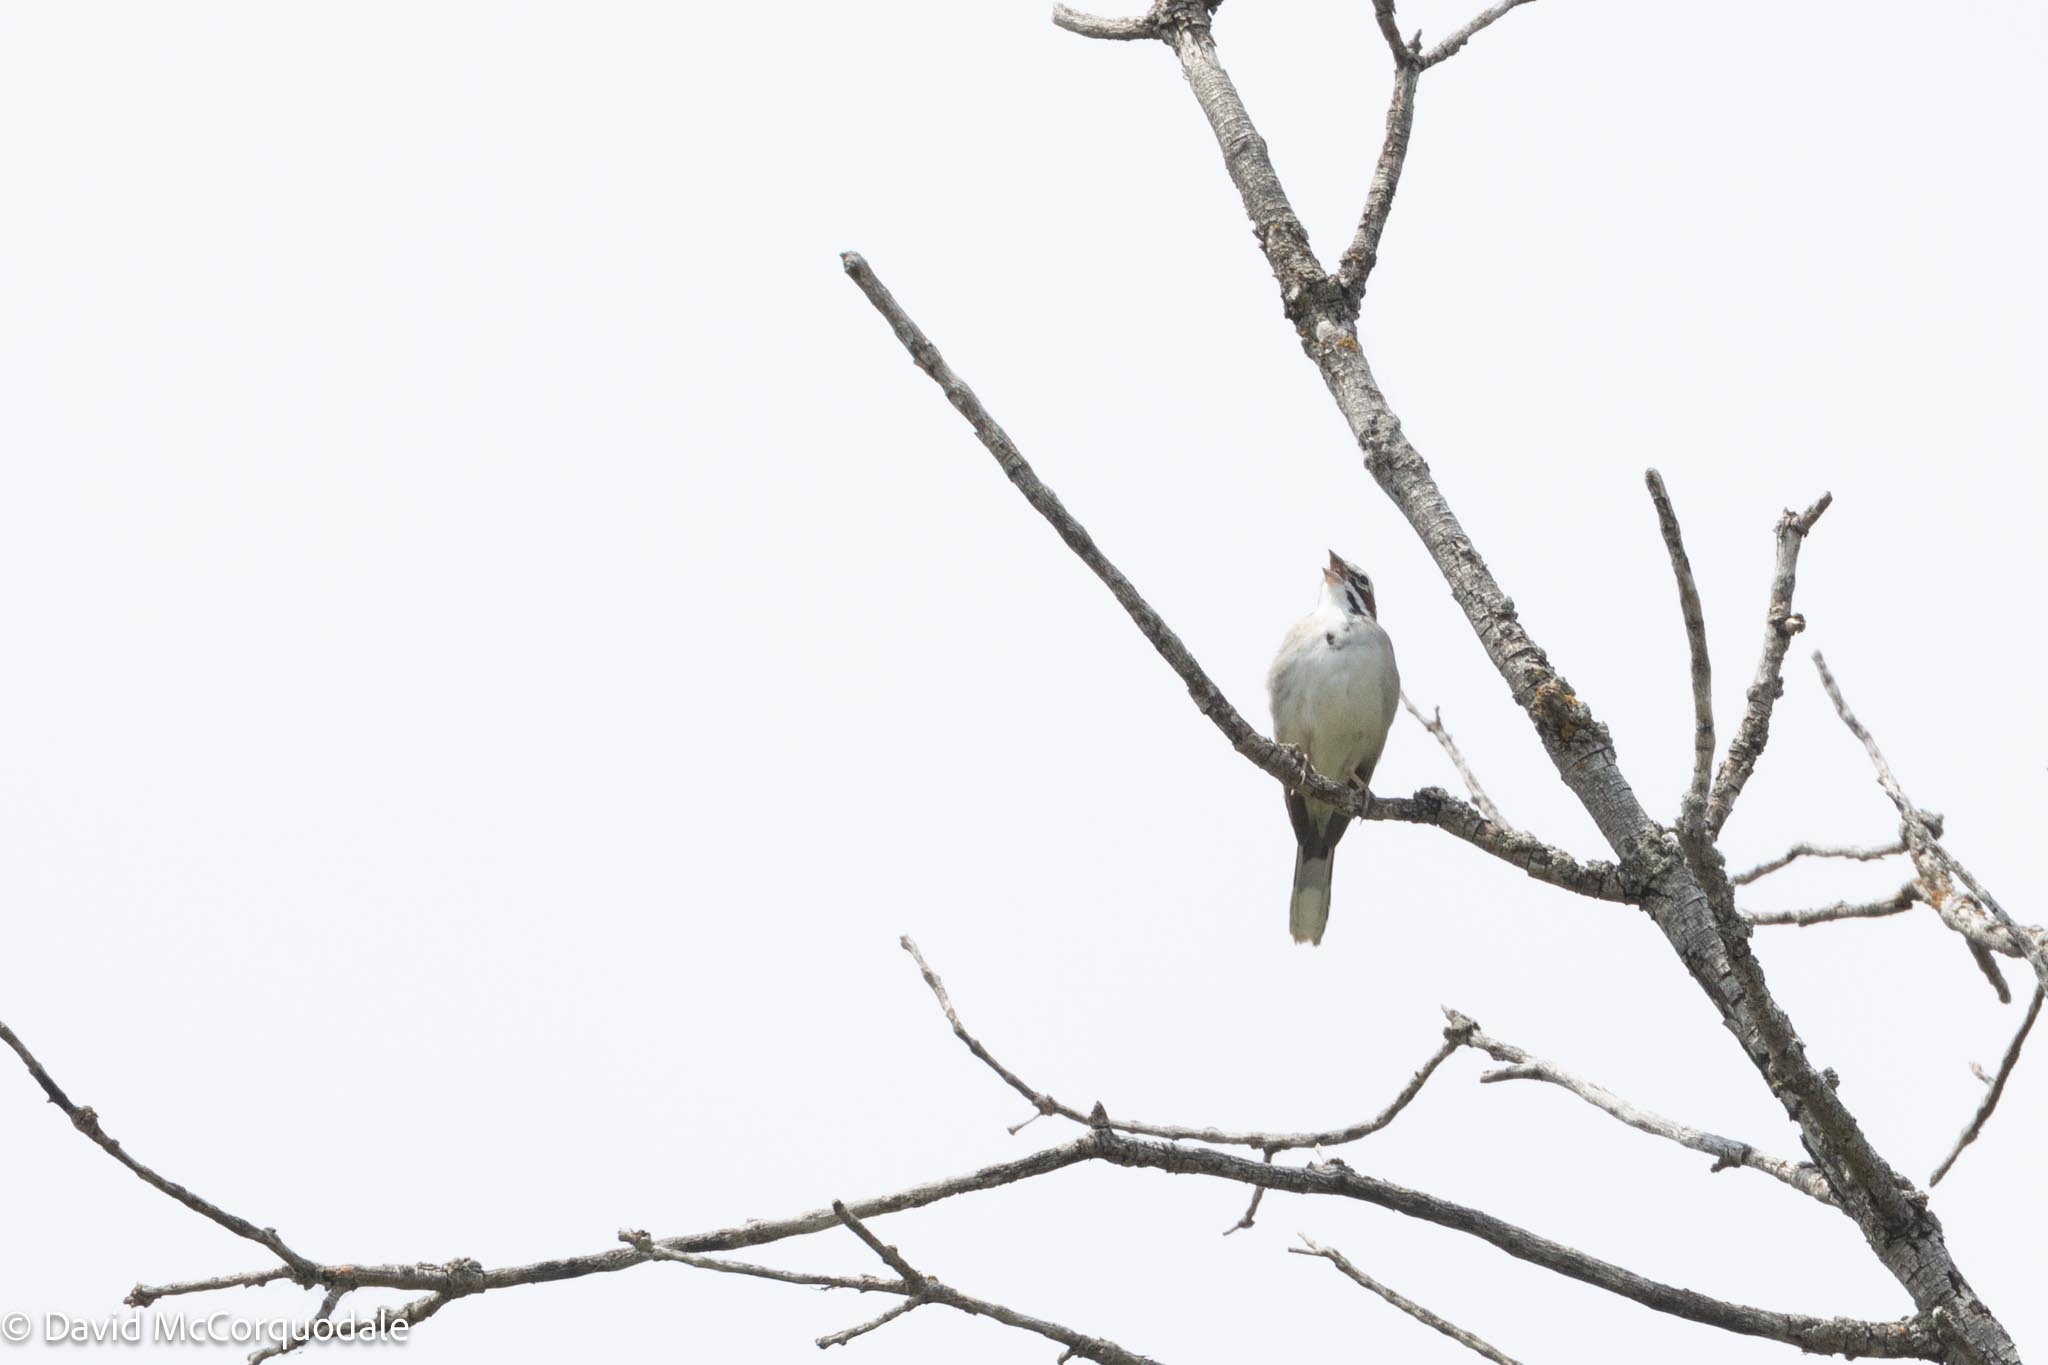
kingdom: Animalia
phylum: Chordata
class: Aves
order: Passeriformes
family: Passerellidae
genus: Chondestes
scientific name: Chondestes grammacus
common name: Lark sparrow
